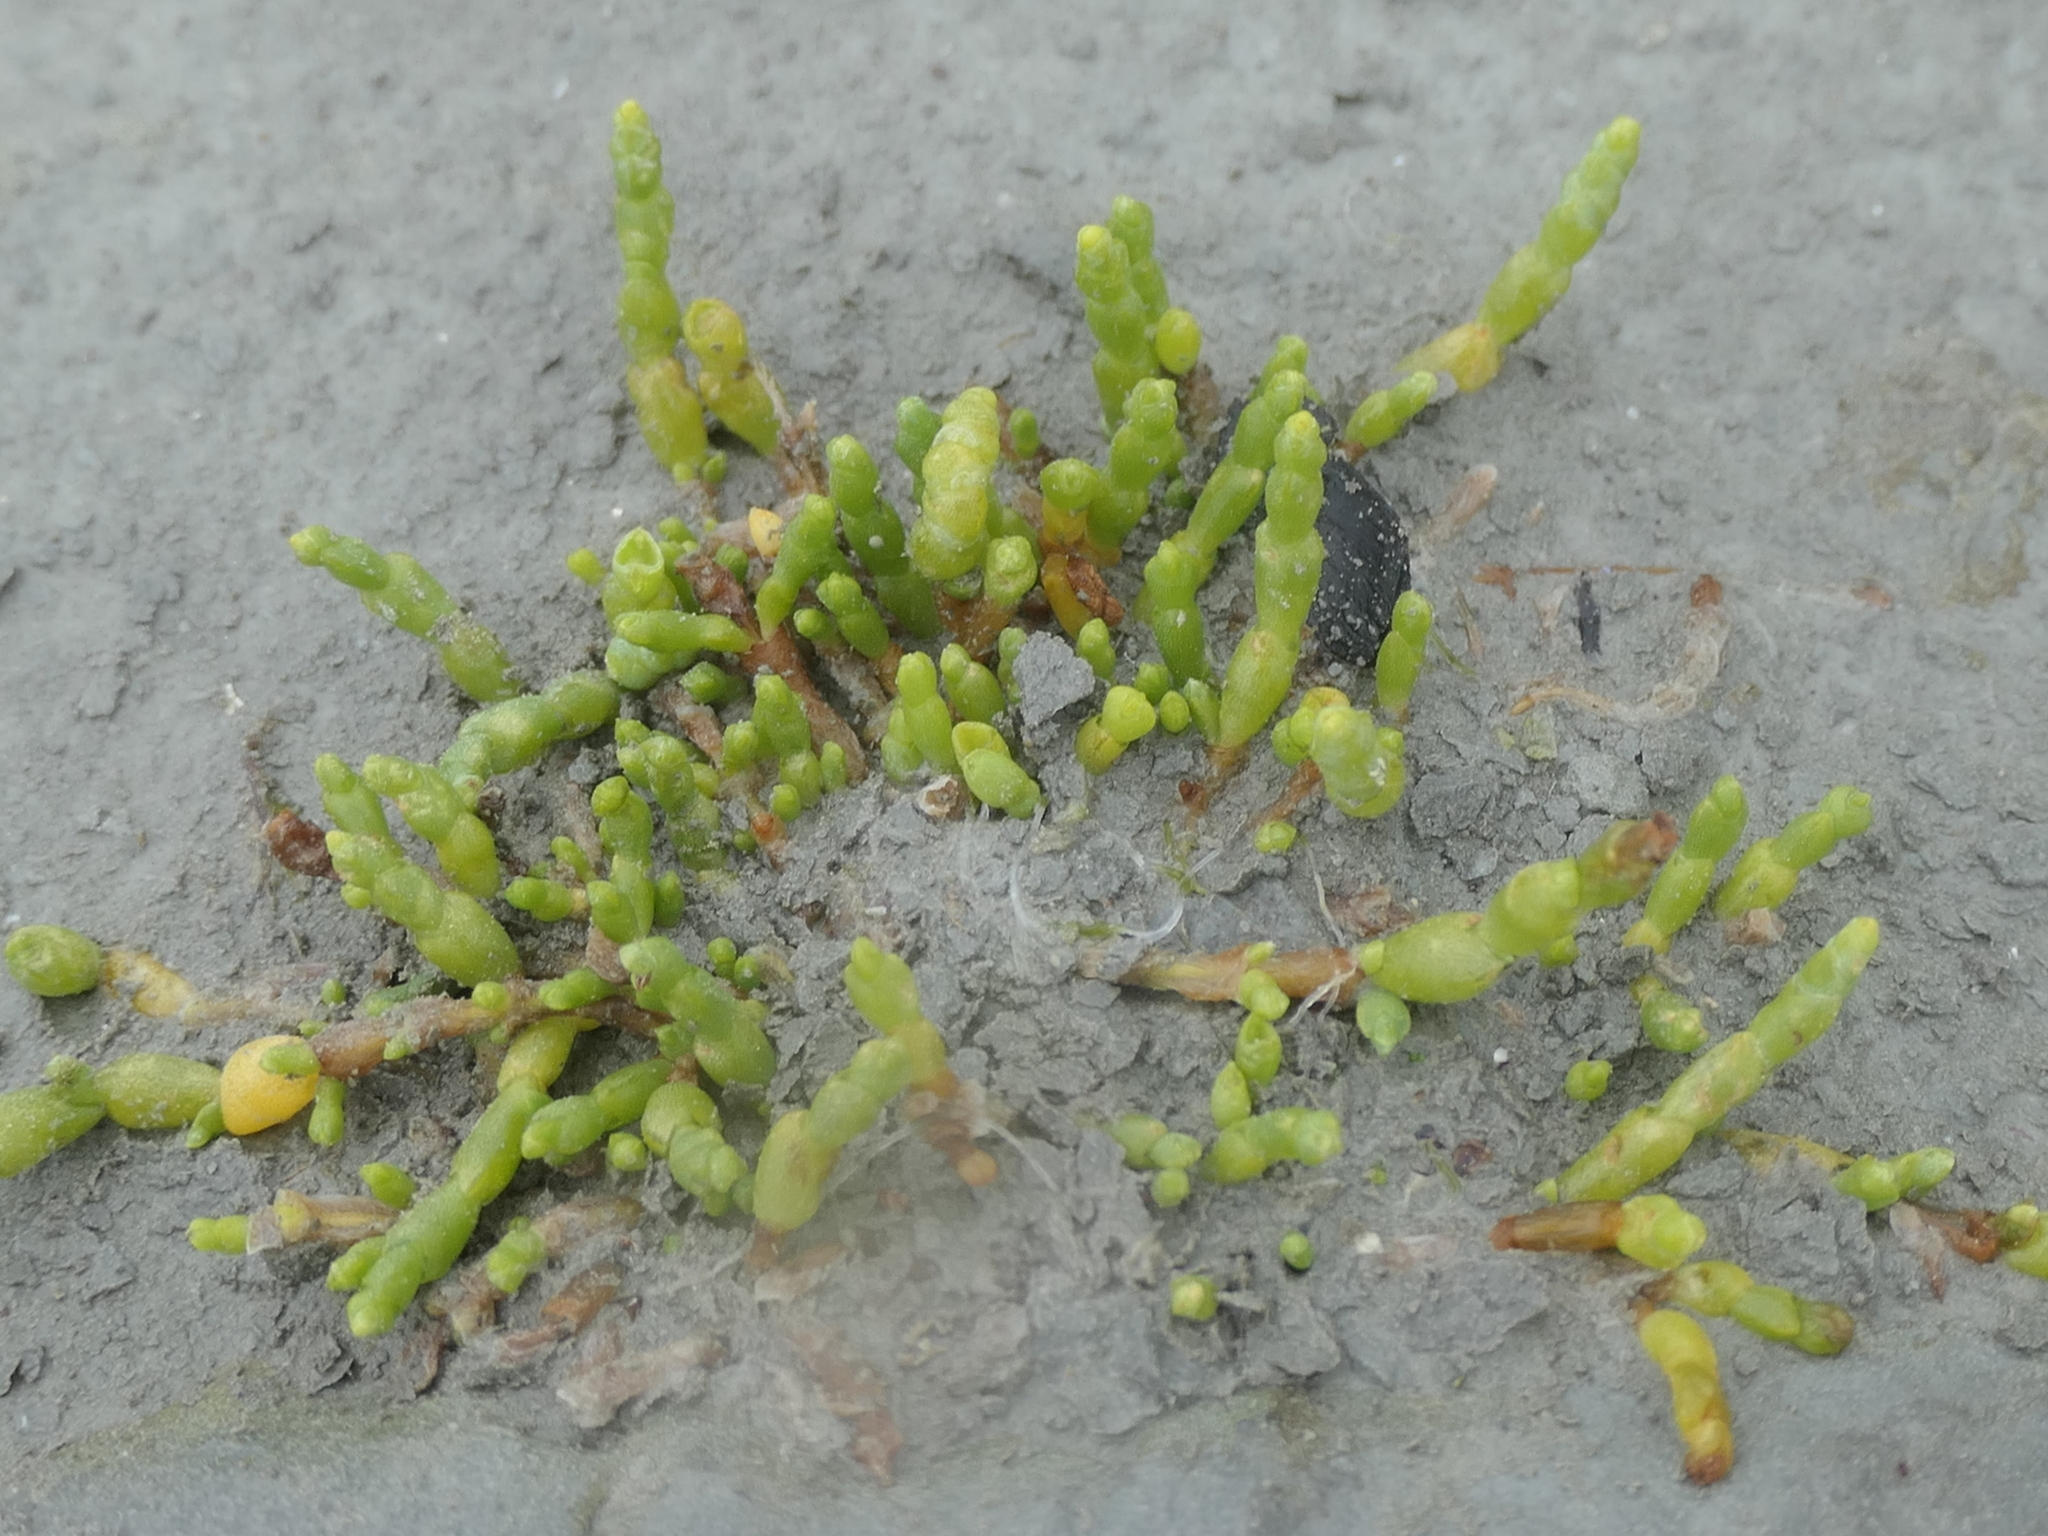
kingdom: Plantae
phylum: Tracheophyta
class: Magnoliopsida
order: Caryophyllales
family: Amaranthaceae
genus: Salicornia
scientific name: Salicornia quinqueflora
